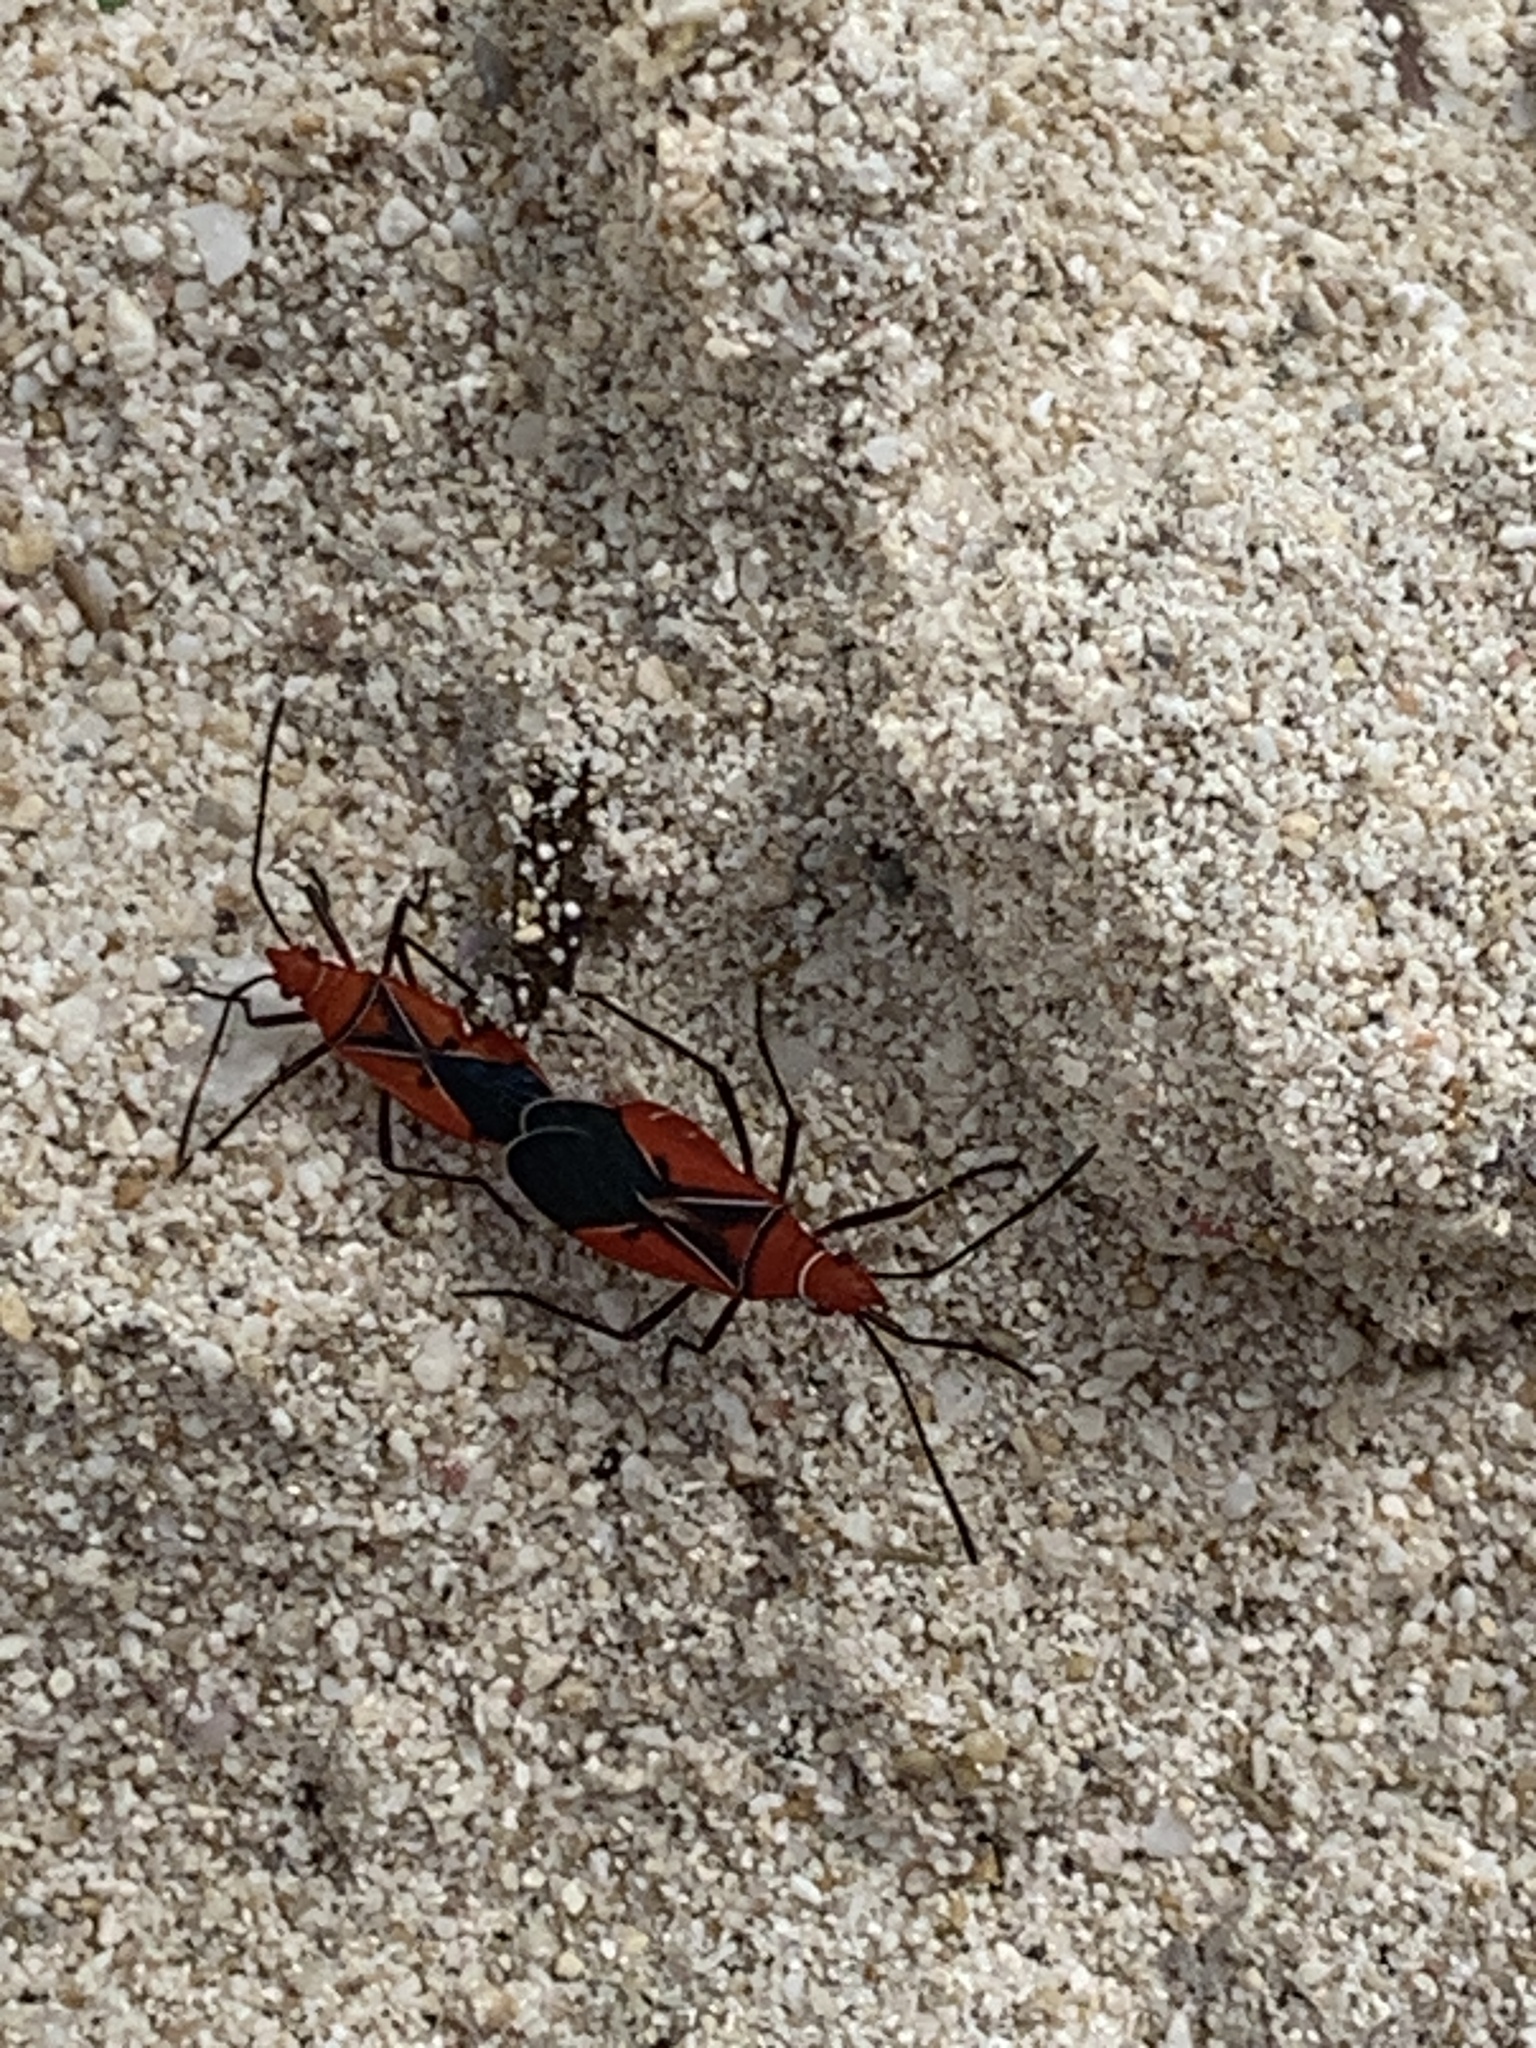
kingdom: Animalia
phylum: Arthropoda
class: Insecta
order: Hemiptera
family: Pyrrhocoridae
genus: Dysdercus
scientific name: Dysdercus andreae
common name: St. andrew's cotton stainer
